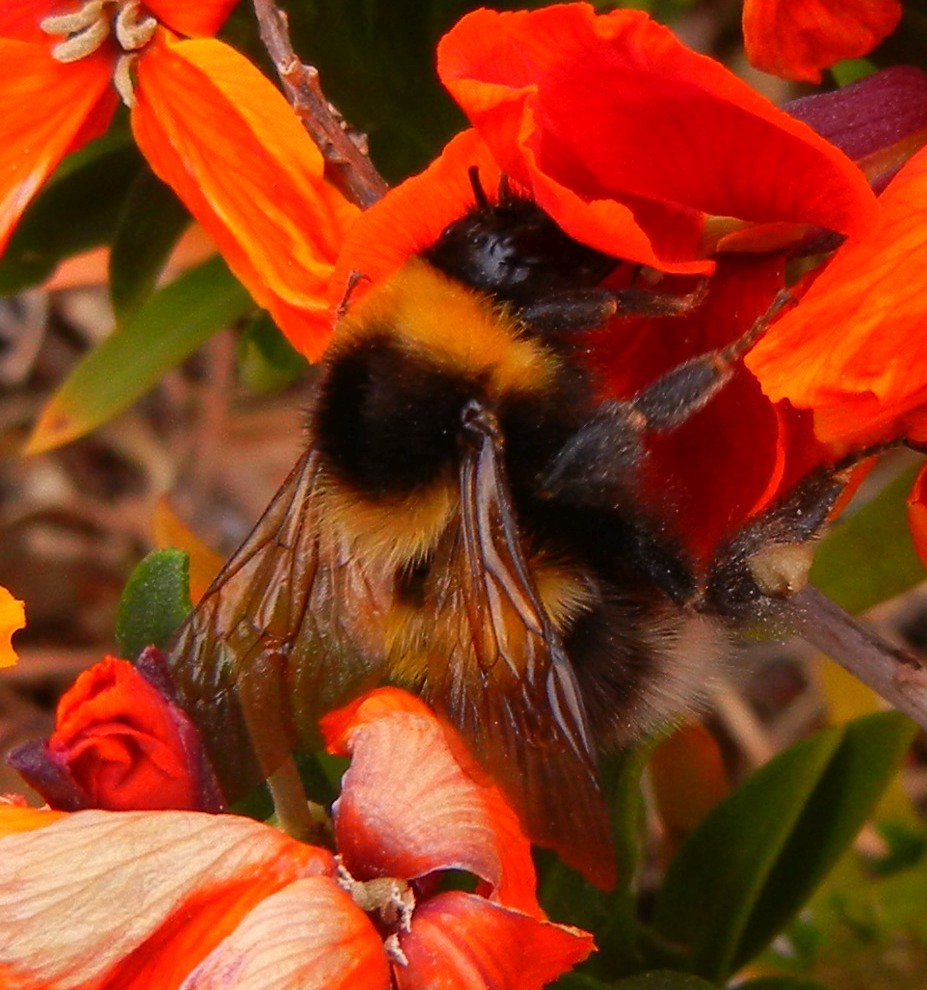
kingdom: Animalia
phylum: Arthropoda
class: Insecta
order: Hymenoptera
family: Apidae
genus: Bombus
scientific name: Bombus hortorum
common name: Garden bumblebee
